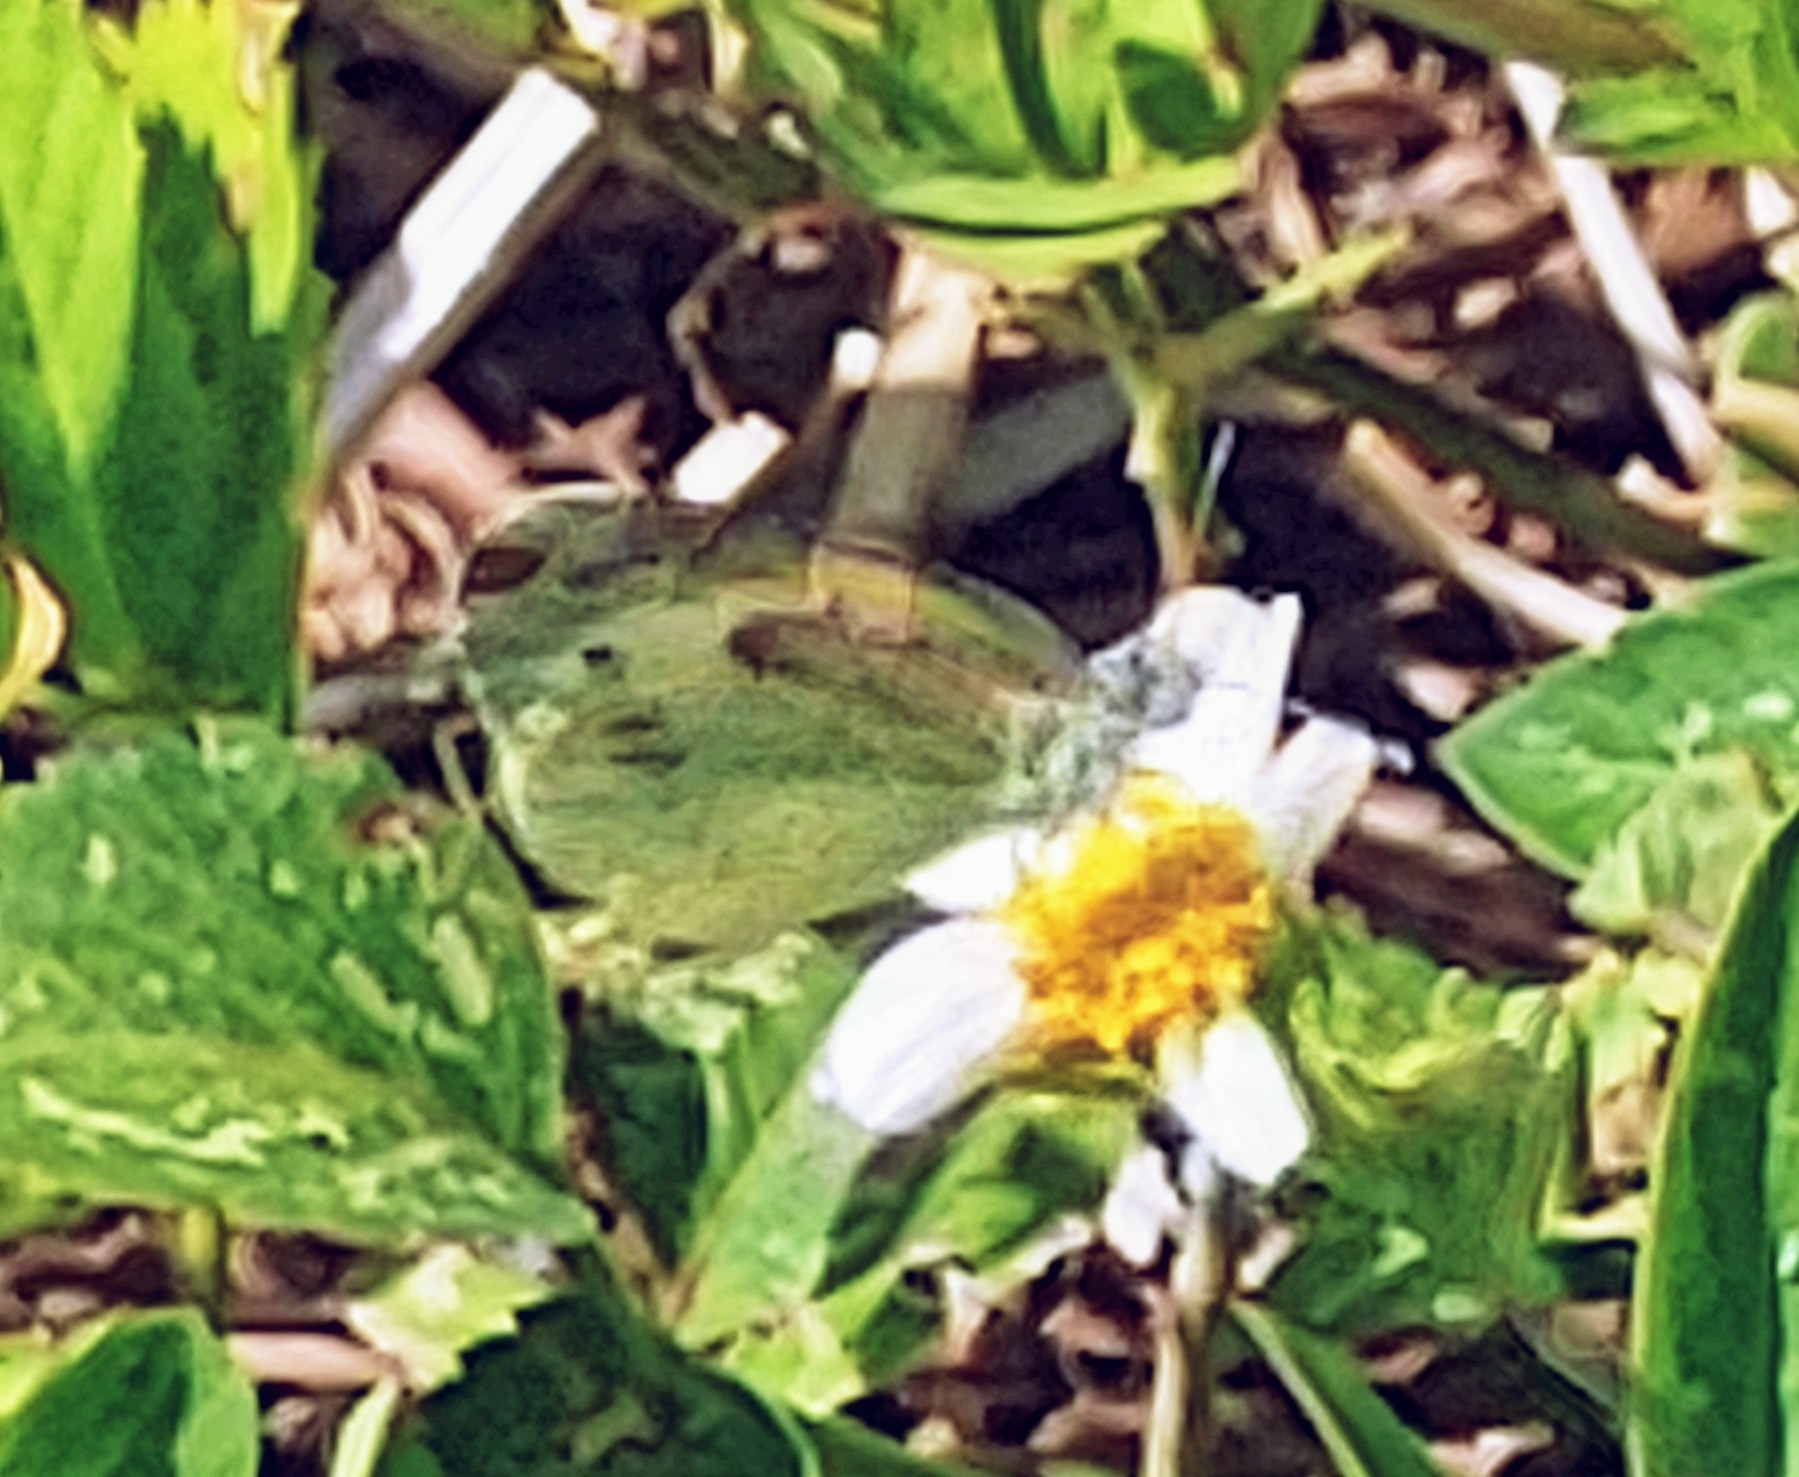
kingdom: Animalia
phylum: Arthropoda
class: Insecta
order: Lepidoptera
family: Pieridae
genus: Nathalis
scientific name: Nathalis iole
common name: Dainty sulphur
